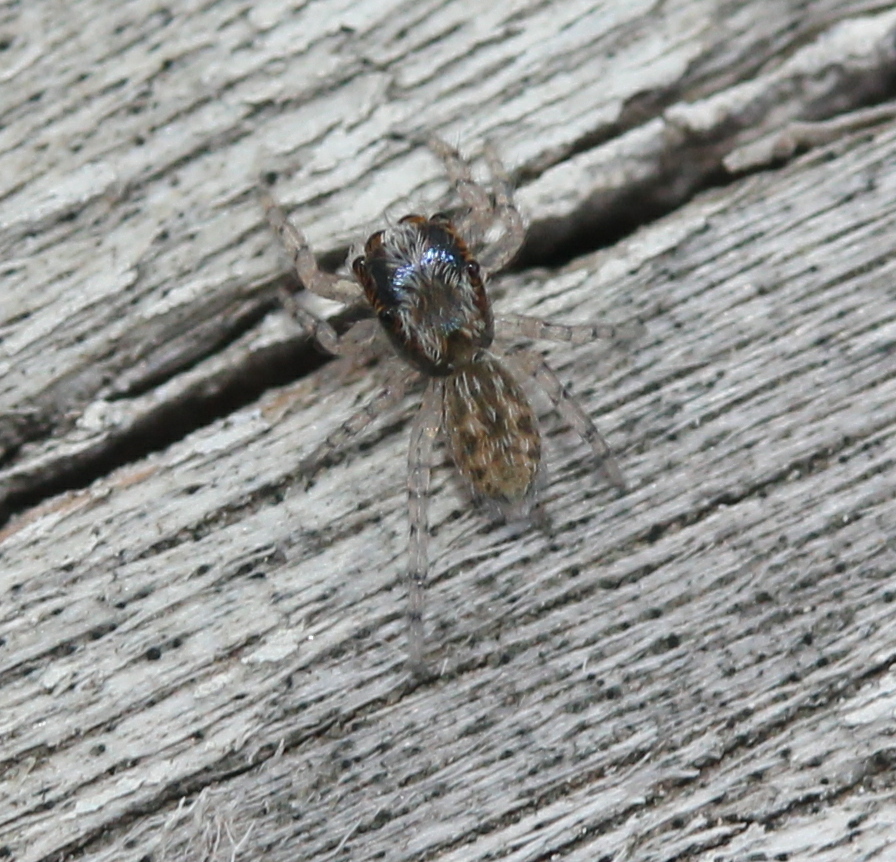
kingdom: Animalia
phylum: Arthropoda
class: Arachnida
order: Araneae
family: Salticidae
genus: Platycryptus
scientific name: Platycryptus undatus
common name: Tan jumping spider
